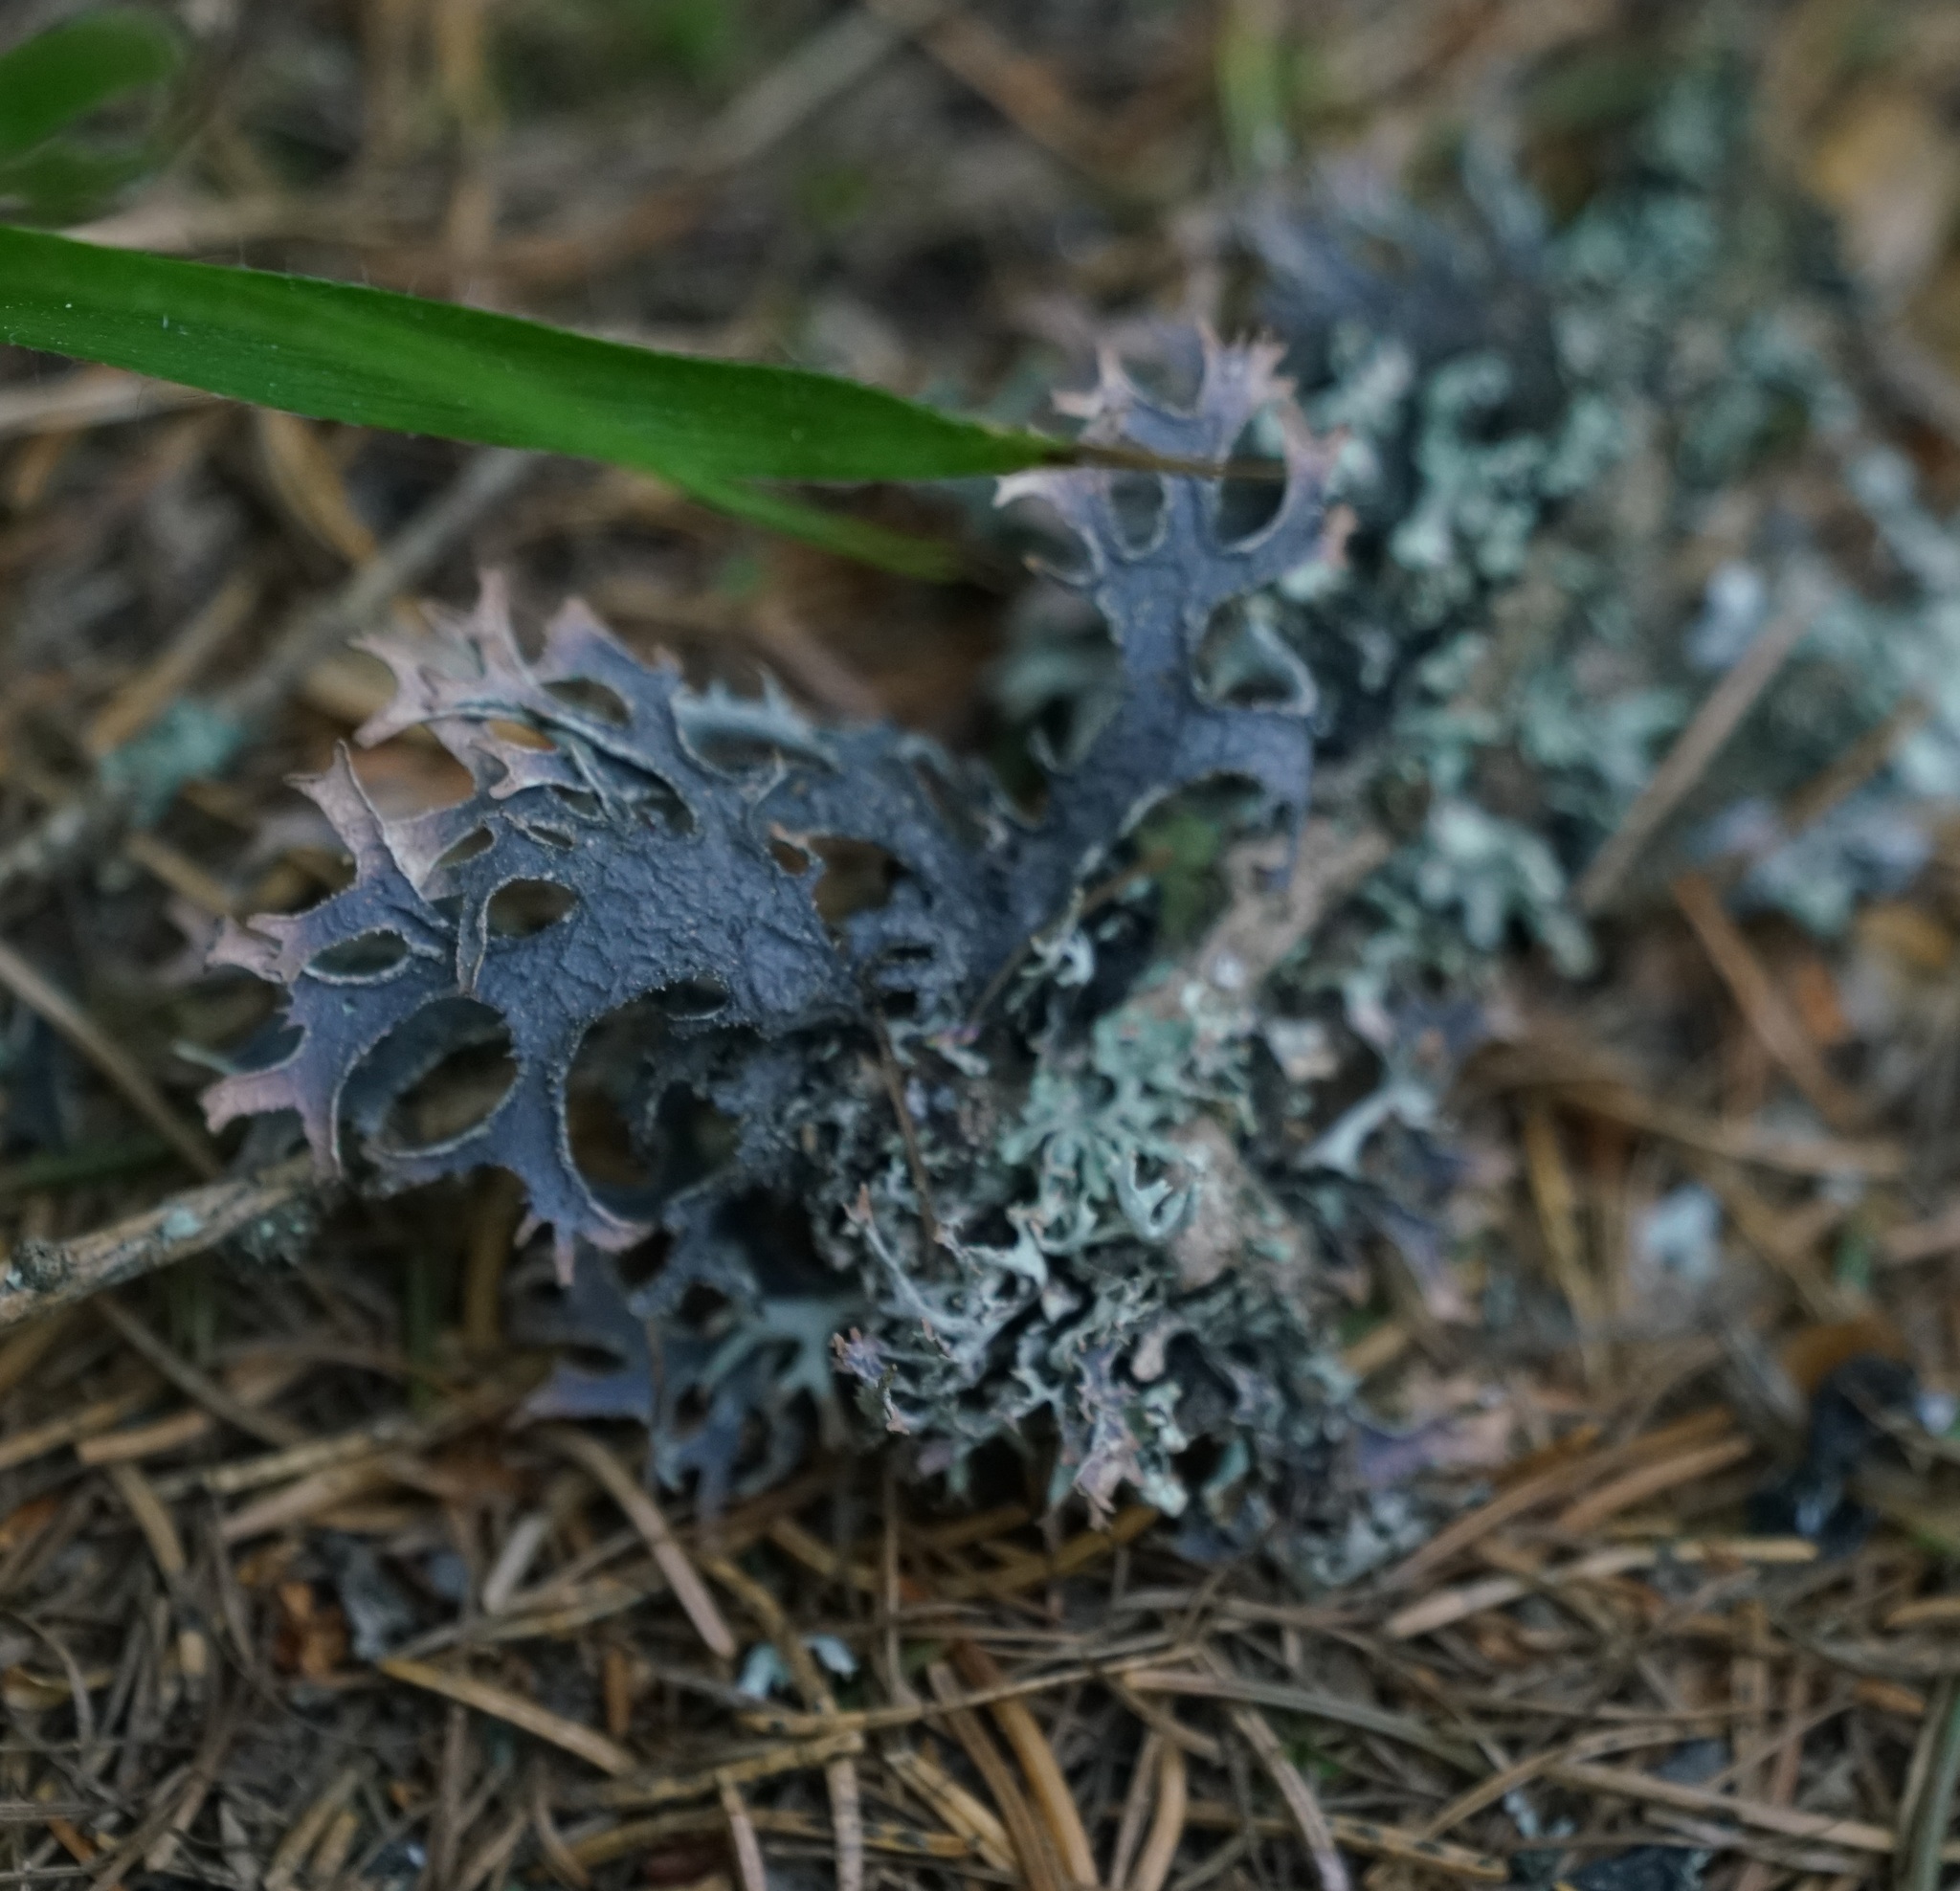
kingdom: Fungi
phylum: Ascomycota
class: Lecanoromycetes
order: Lecanorales
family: Parmeliaceae
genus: Pseudevernia
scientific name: Pseudevernia furfuracea
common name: Tree moss
